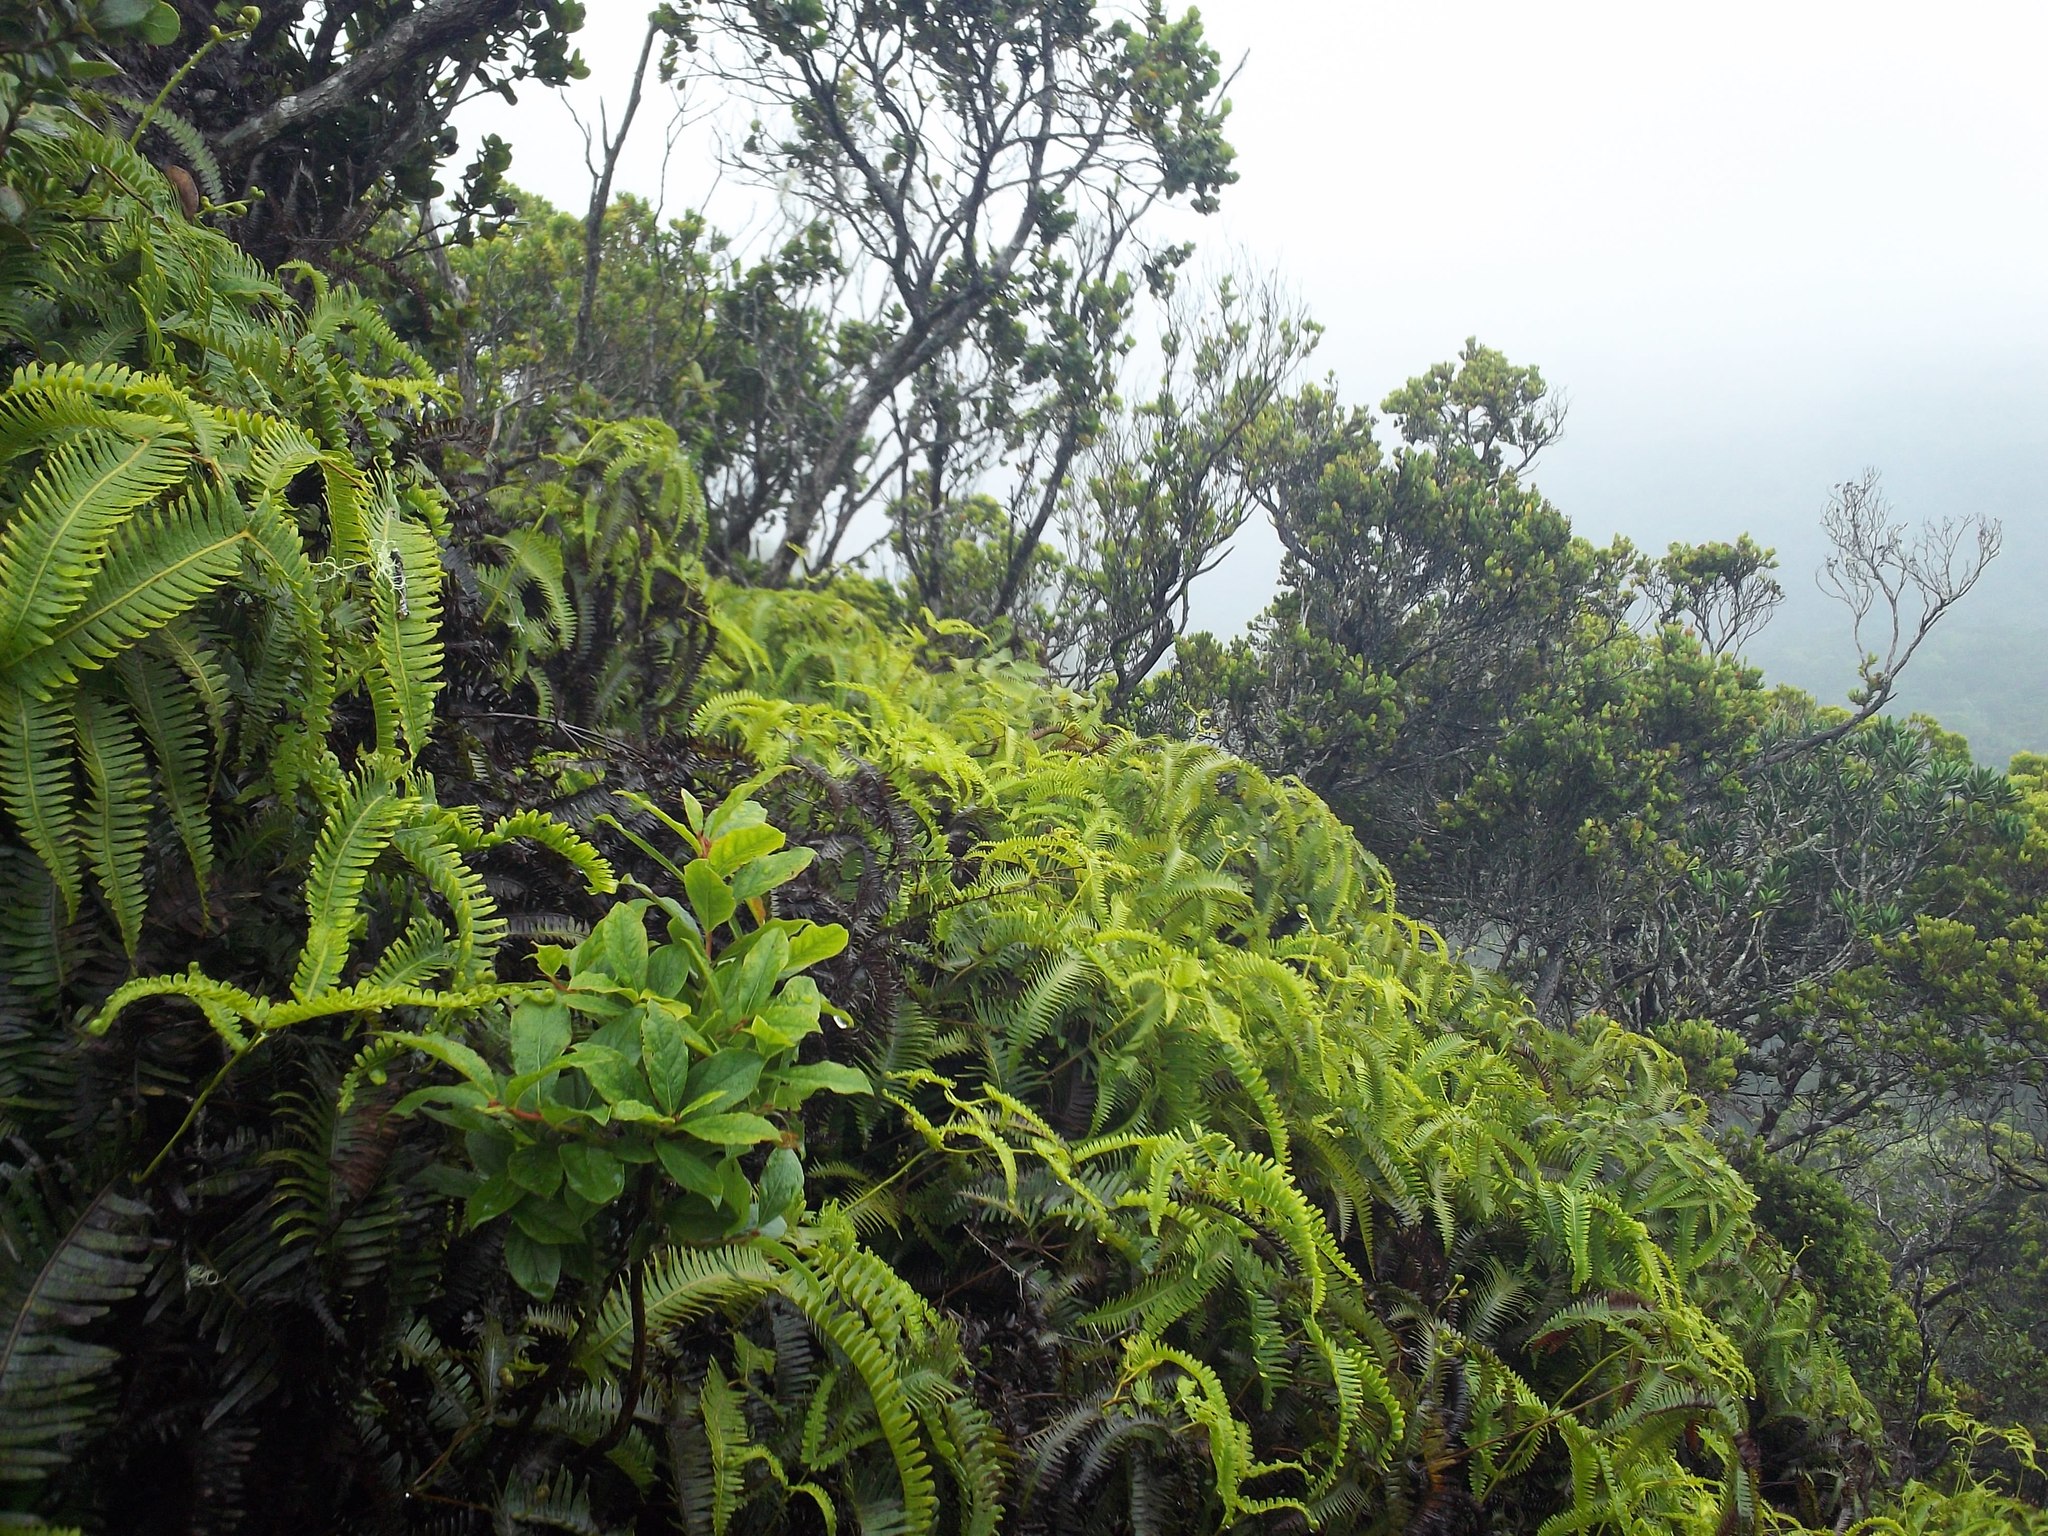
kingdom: Plantae
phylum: Tracheophyta
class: Polypodiopsida
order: Gleicheniales
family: Gleicheniaceae
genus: Dicranopteris
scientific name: Dicranopteris linearis
